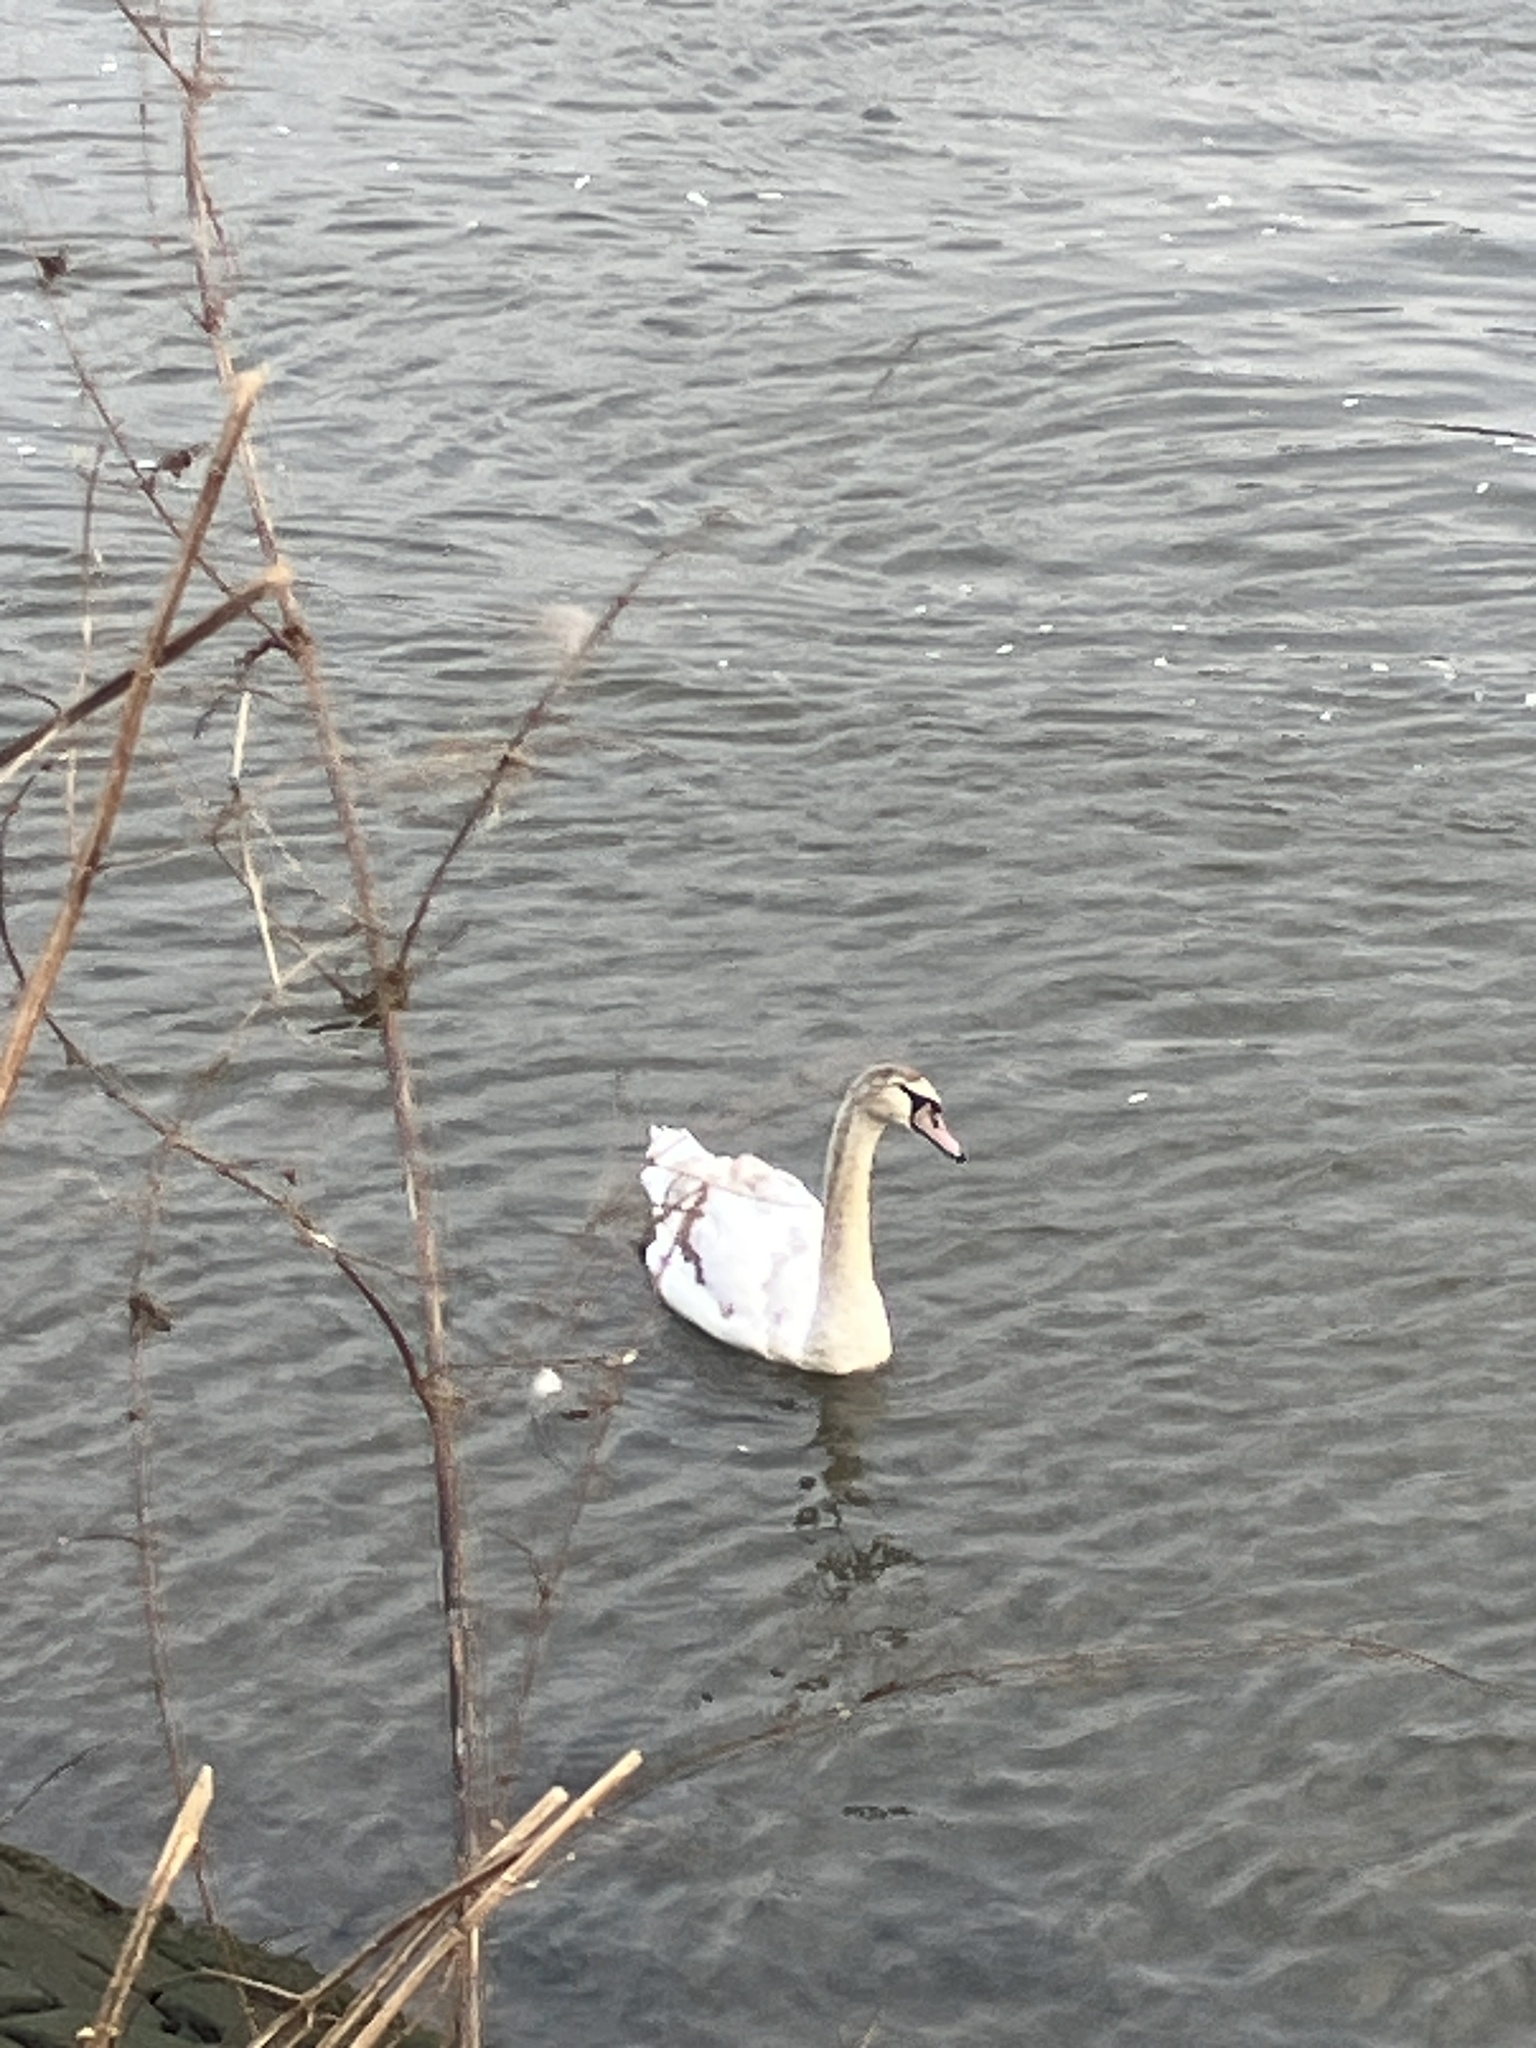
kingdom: Animalia
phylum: Chordata
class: Aves
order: Anseriformes
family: Anatidae
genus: Cygnus
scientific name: Cygnus olor
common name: Mute swan
